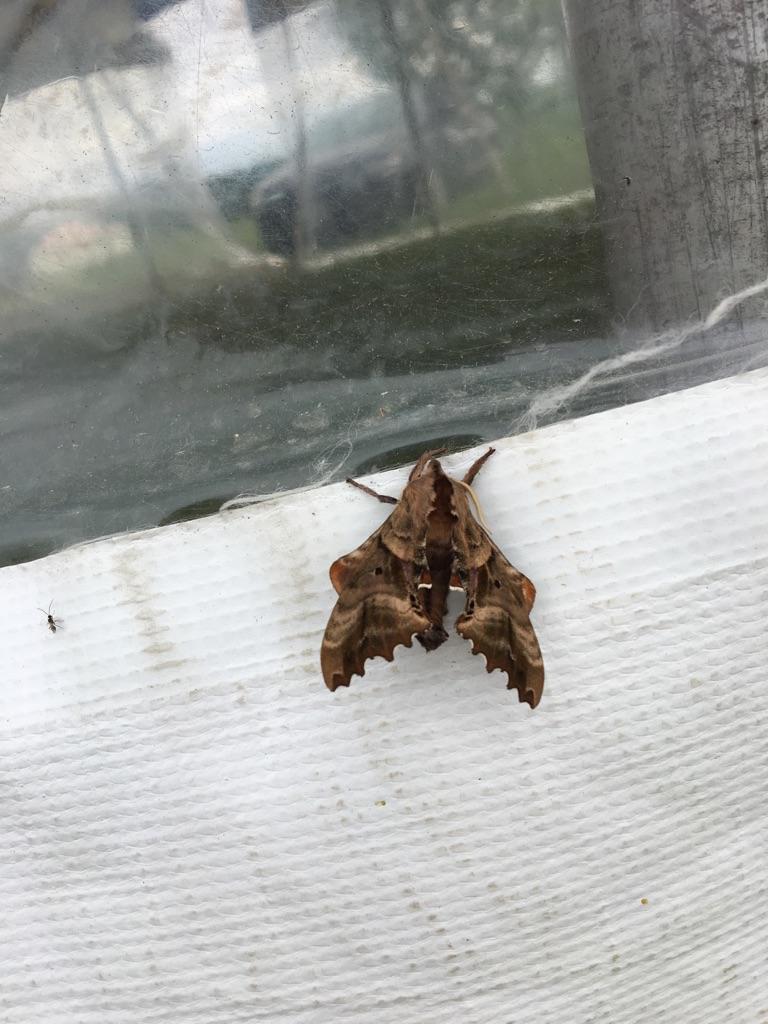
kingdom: Animalia
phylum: Arthropoda
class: Insecta
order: Lepidoptera
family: Sphingidae
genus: Paonias
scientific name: Paonias excaecata
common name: Blind-eyed sphinx
